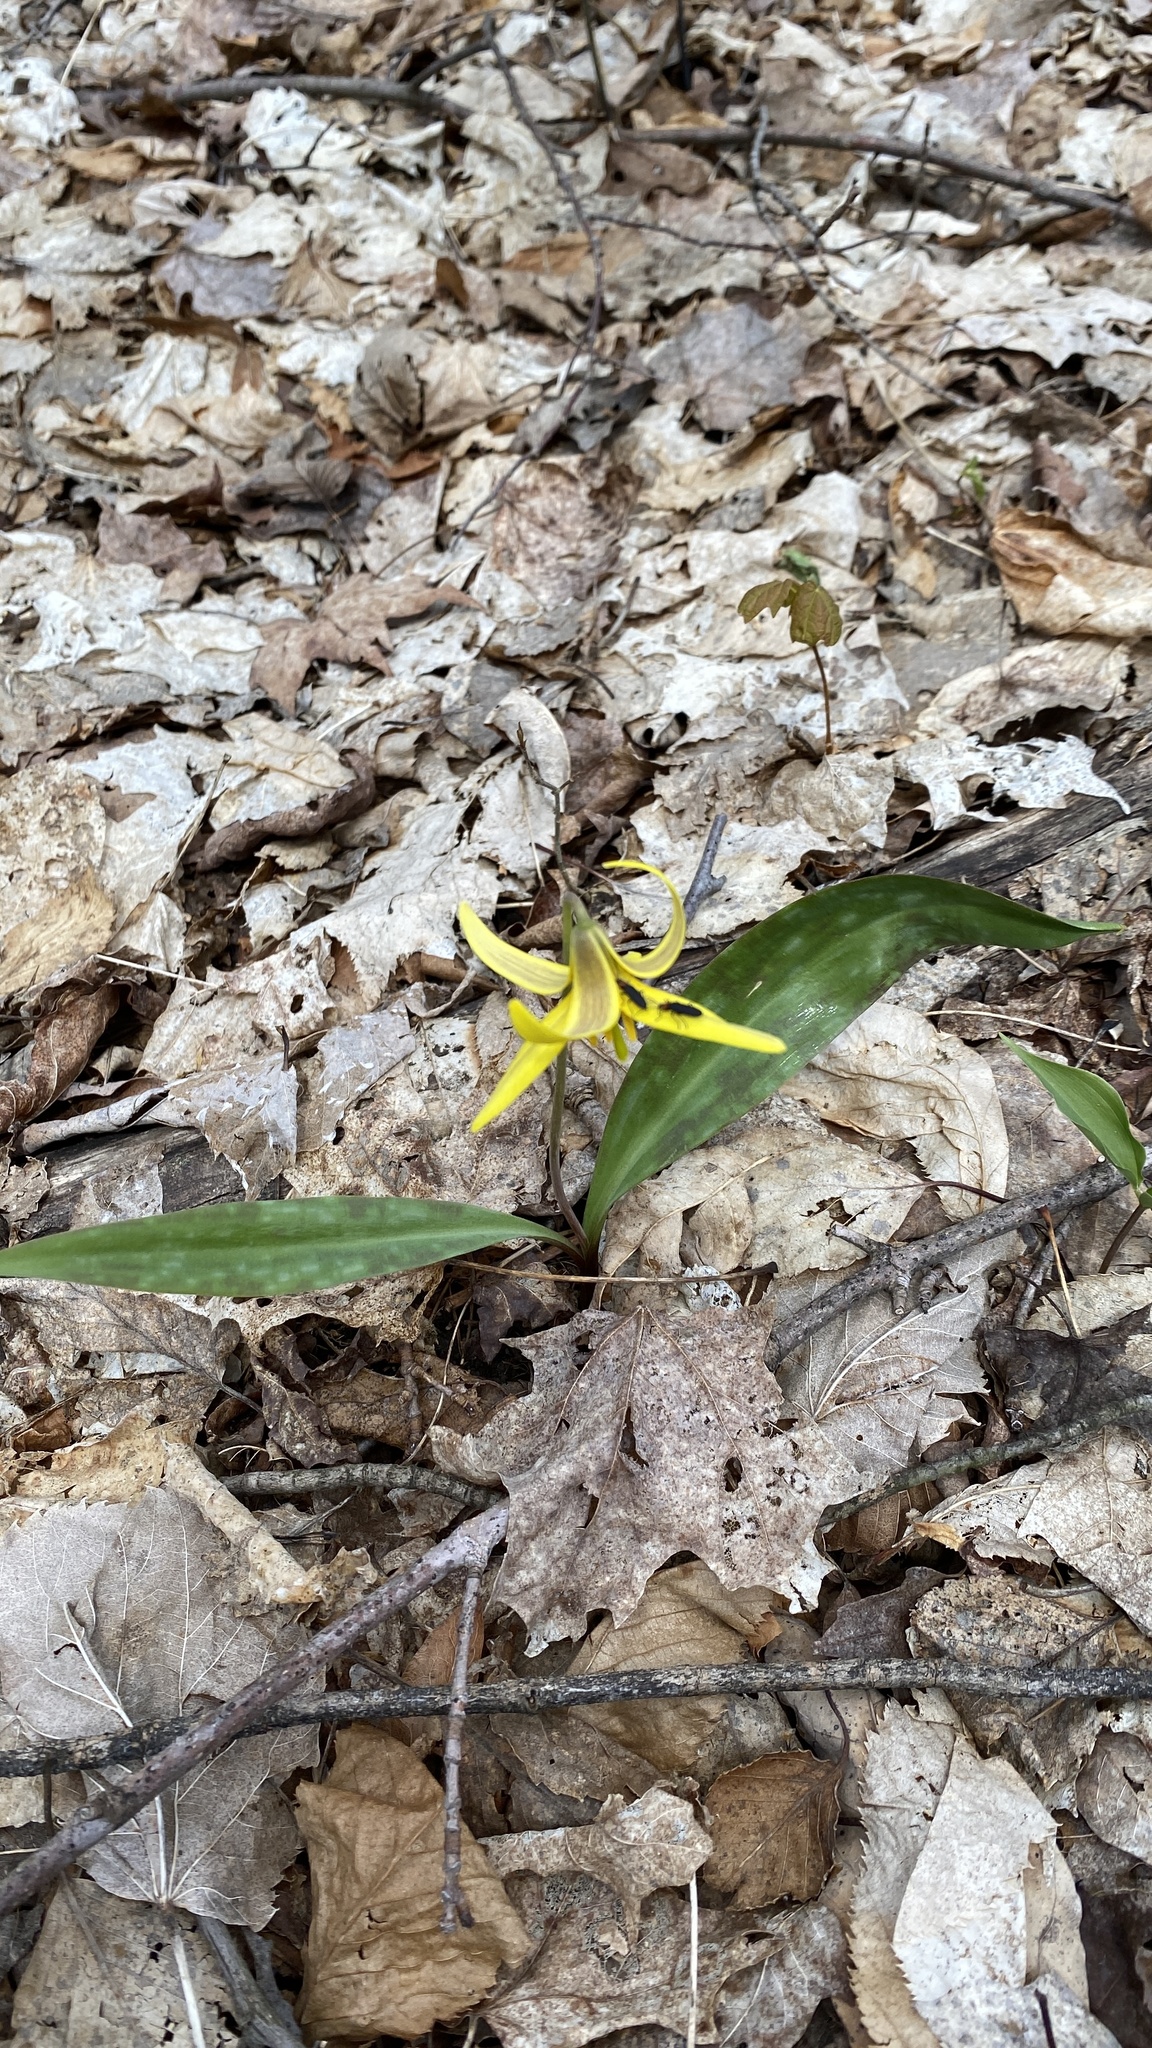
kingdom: Plantae
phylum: Tracheophyta
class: Liliopsida
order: Liliales
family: Liliaceae
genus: Erythronium
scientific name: Erythronium americanum
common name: Yellow adder's-tongue
